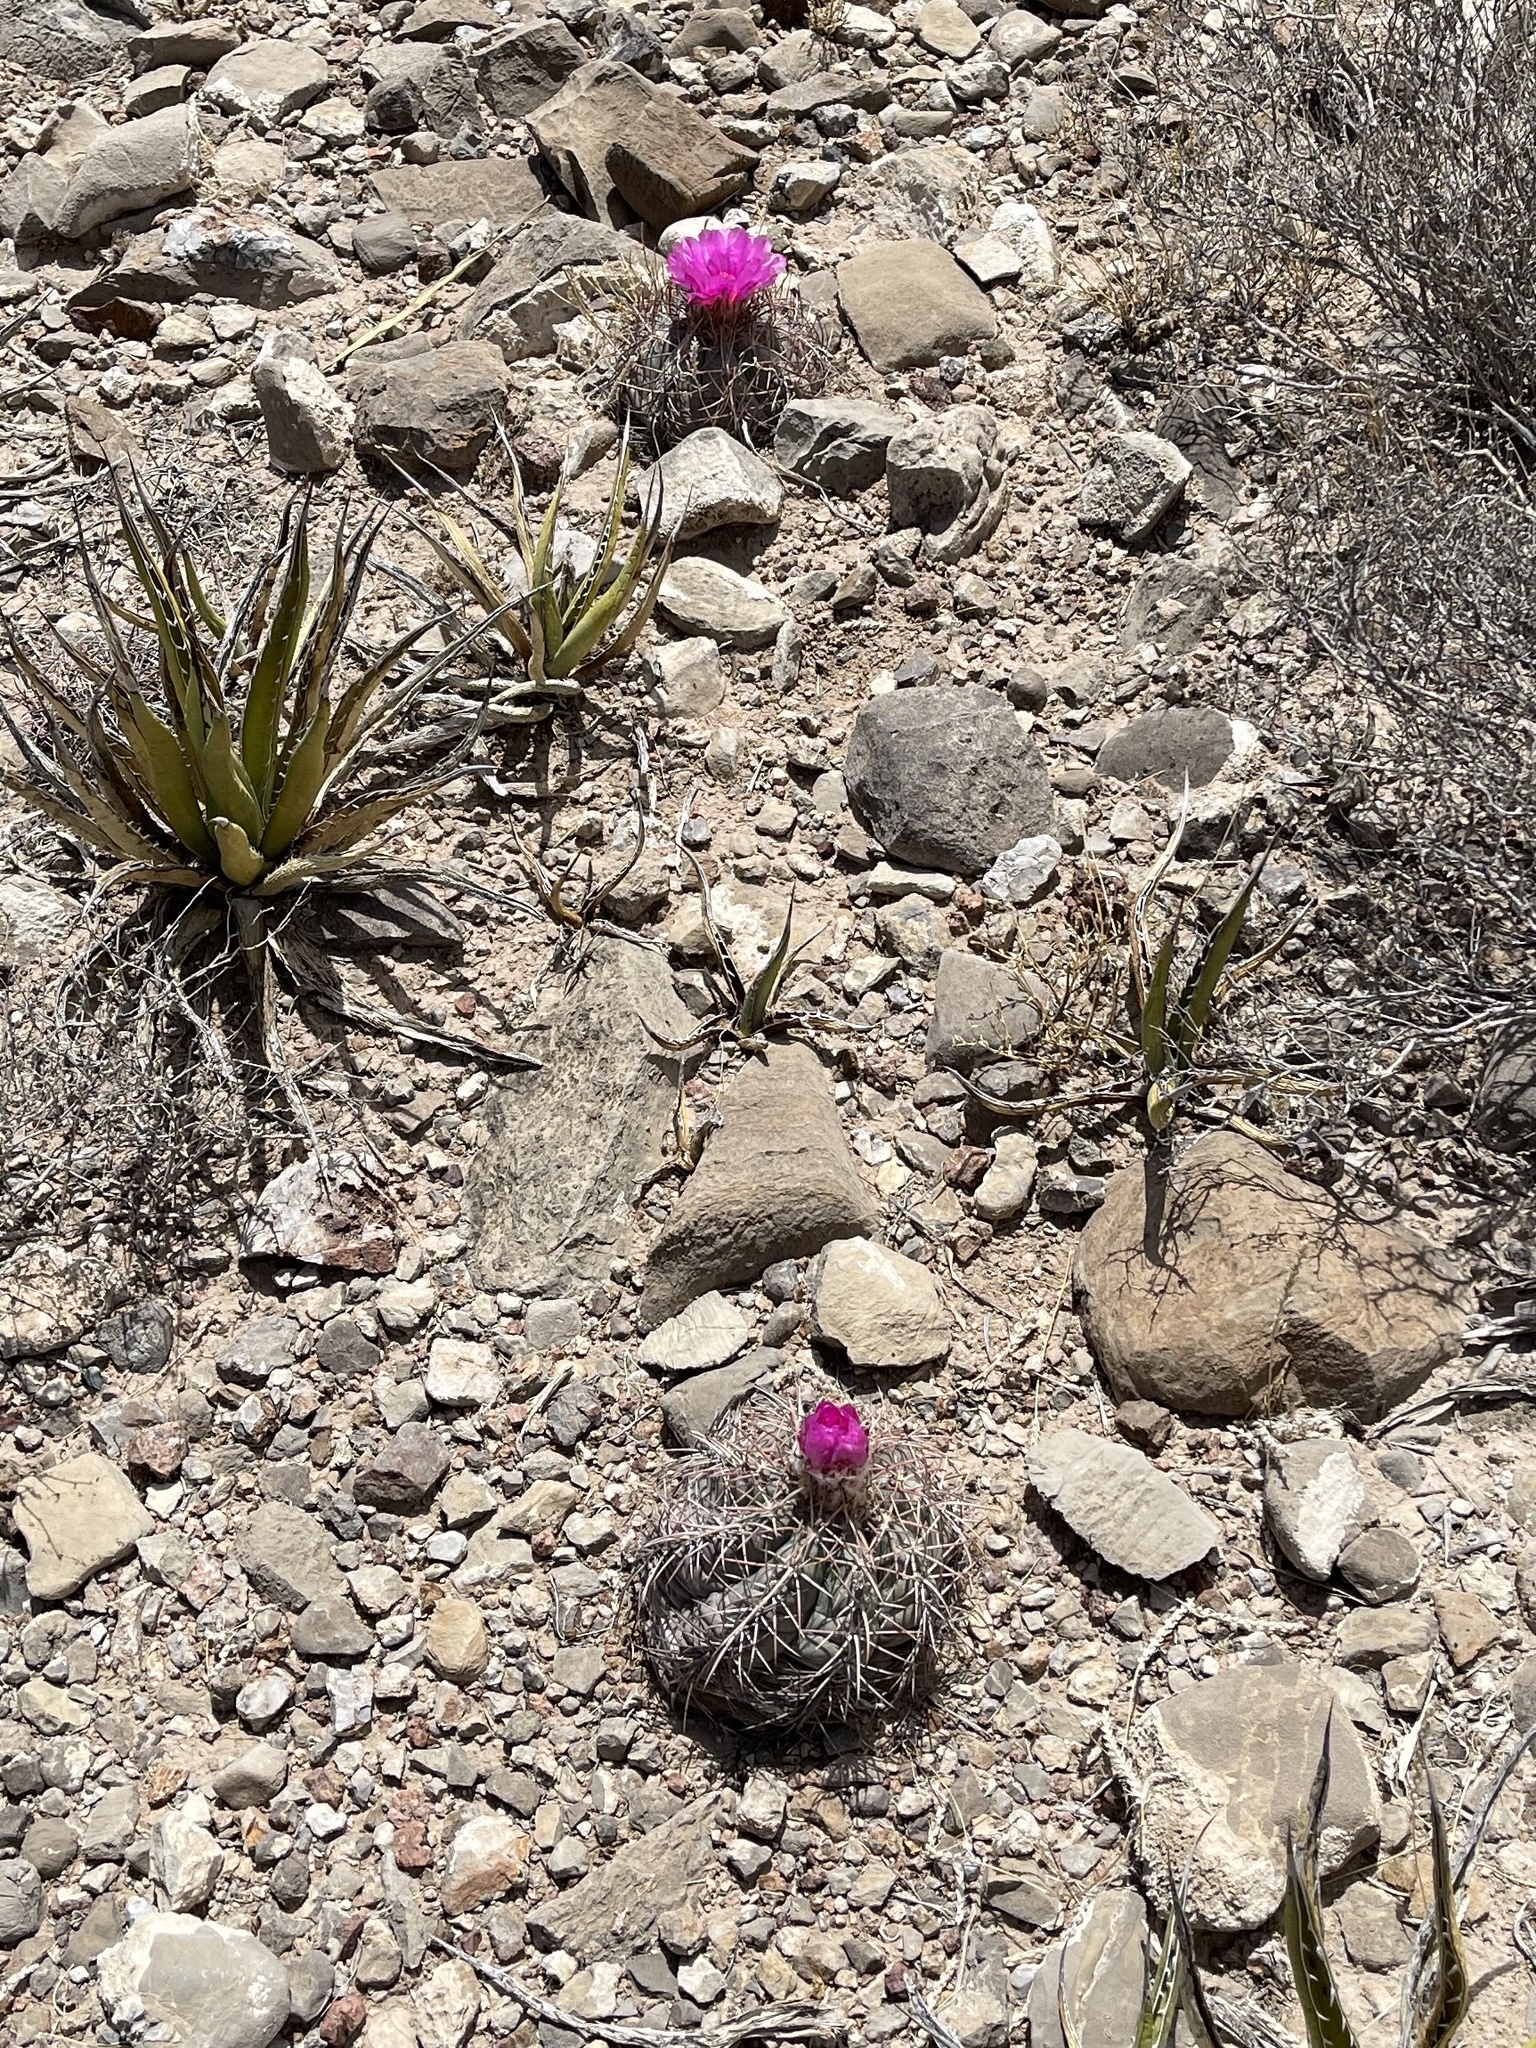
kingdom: Plantae
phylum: Tracheophyta
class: Magnoliopsida
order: Caryophyllales
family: Cactaceae
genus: Echinocactus
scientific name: Echinocactus horizonthalonius
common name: Devilshead
